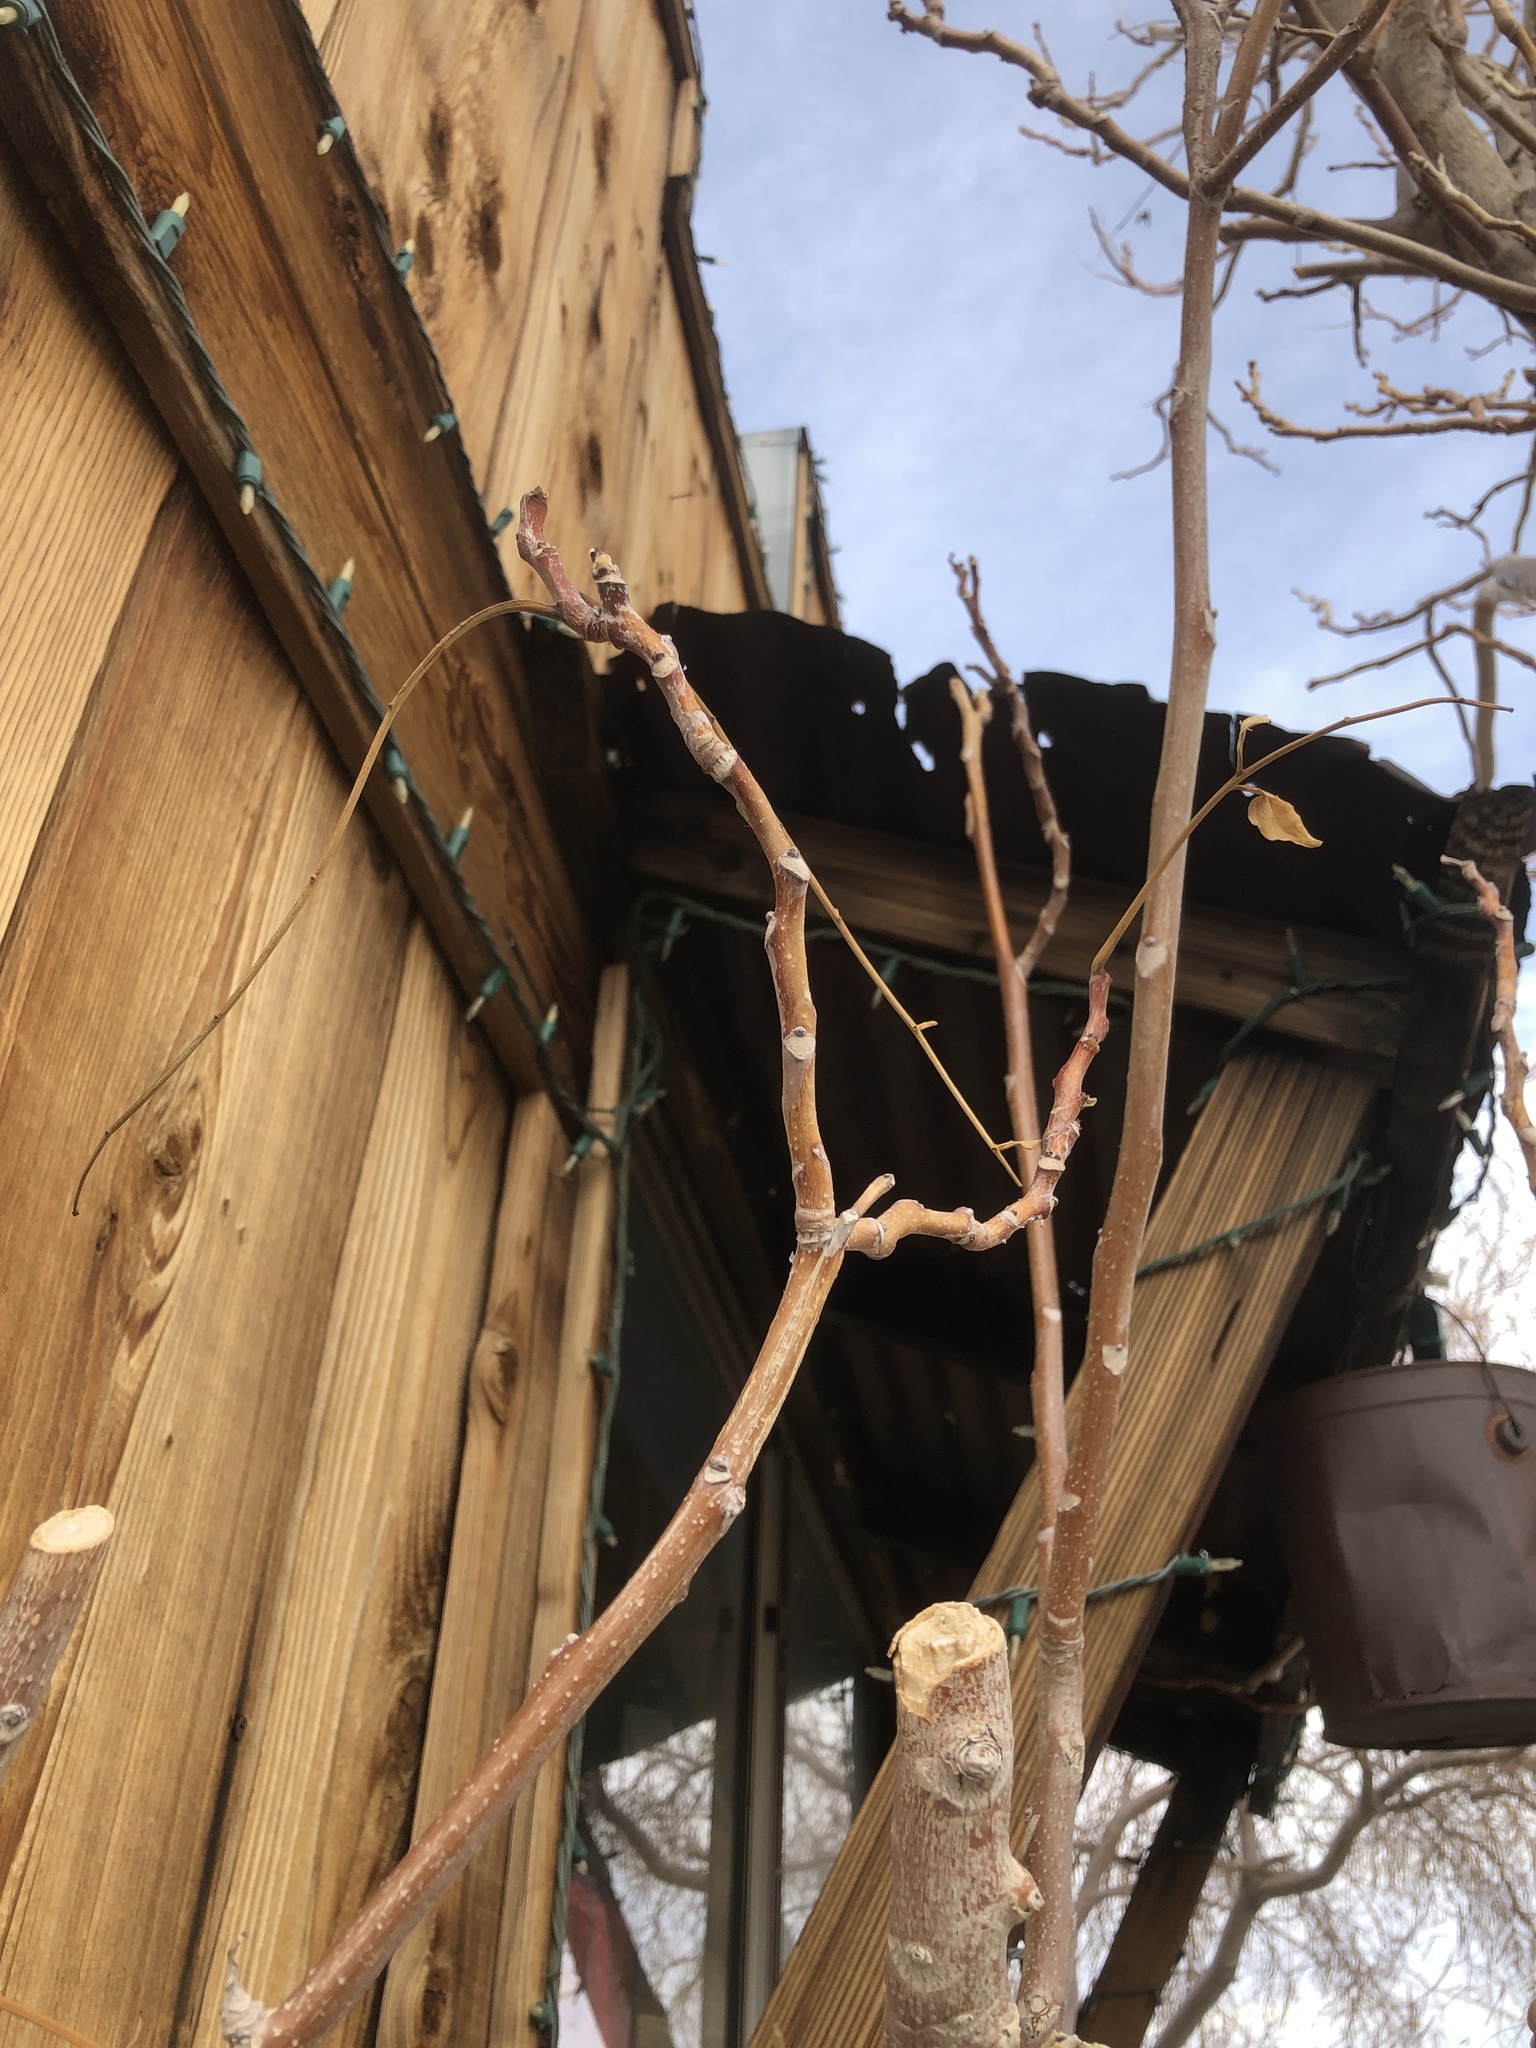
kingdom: Plantae
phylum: Tracheophyta
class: Magnoliopsida
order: Sapindales
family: Simaroubaceae
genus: Ailanthus
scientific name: Ailanthus altissima
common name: Tree-of-heaven
